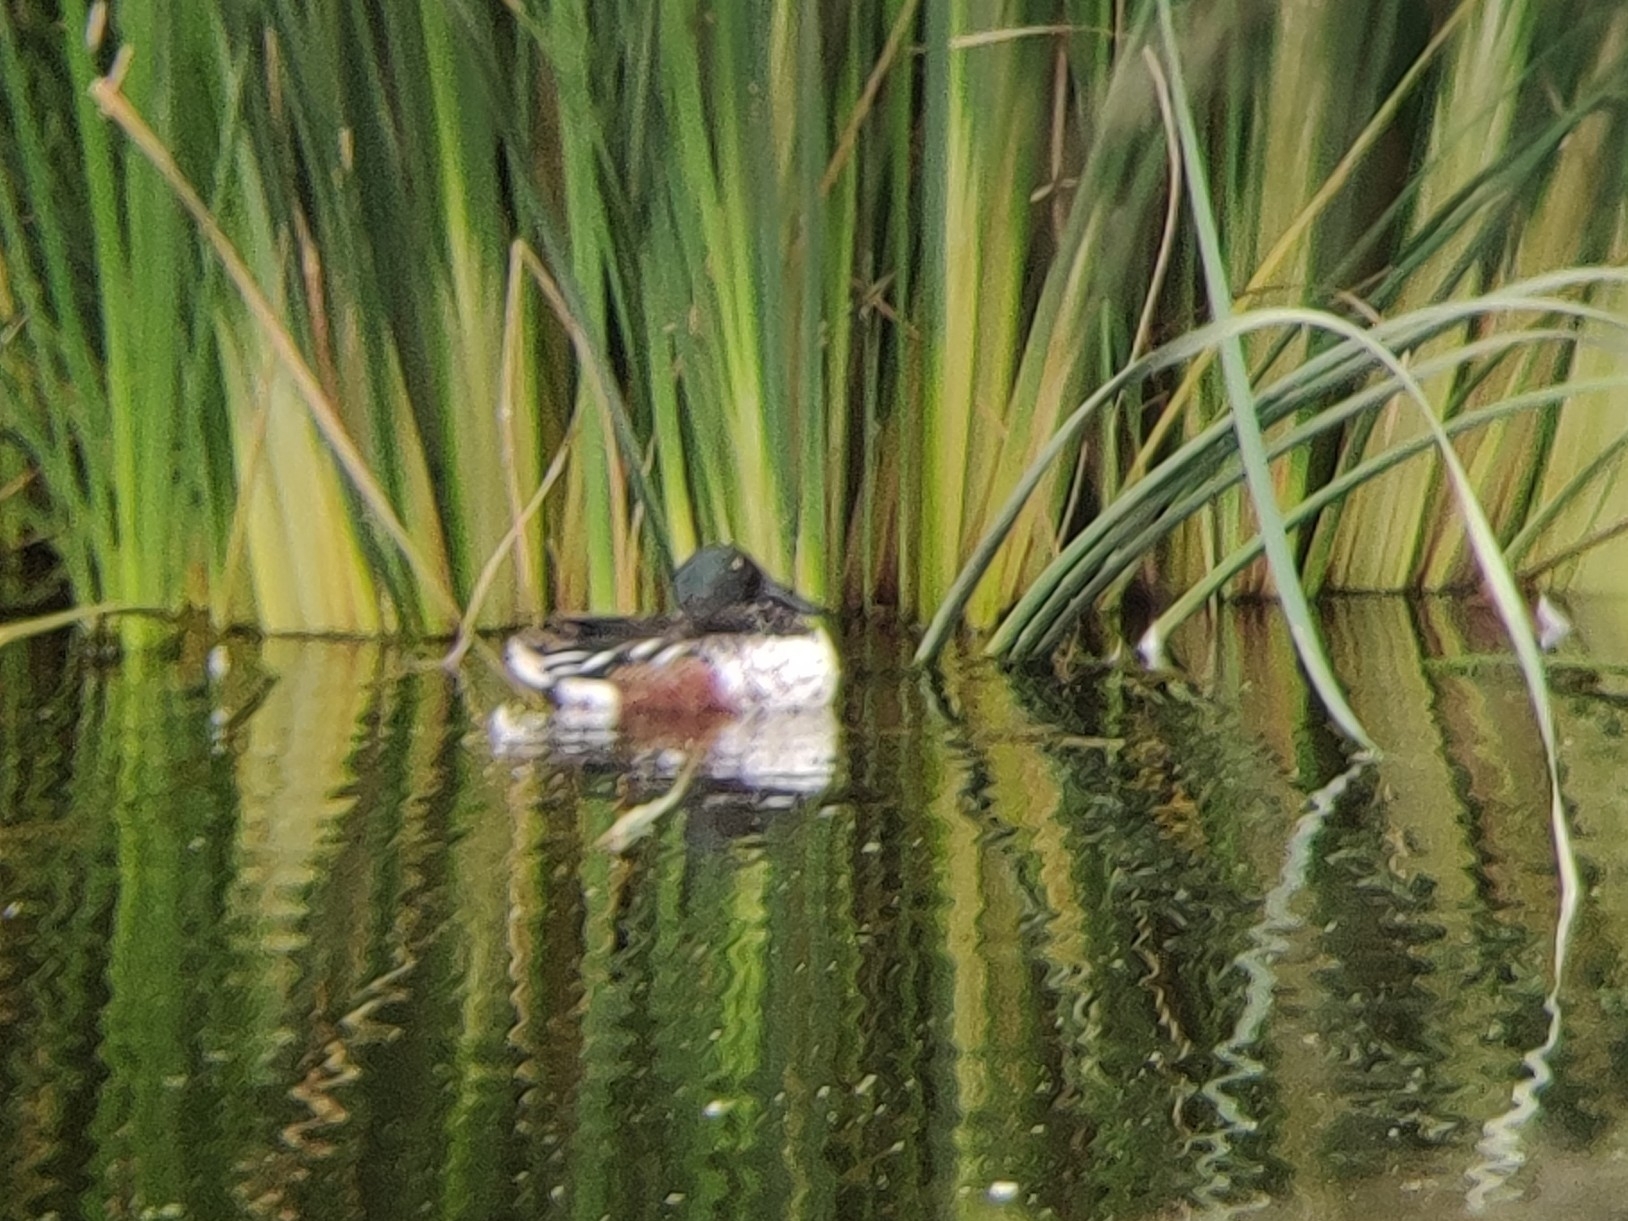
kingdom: Animalia
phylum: Chordata
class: Aves
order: Anseriformes
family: Anatidae
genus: Spatula
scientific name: Spatula clypeata
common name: Northern shoveler
